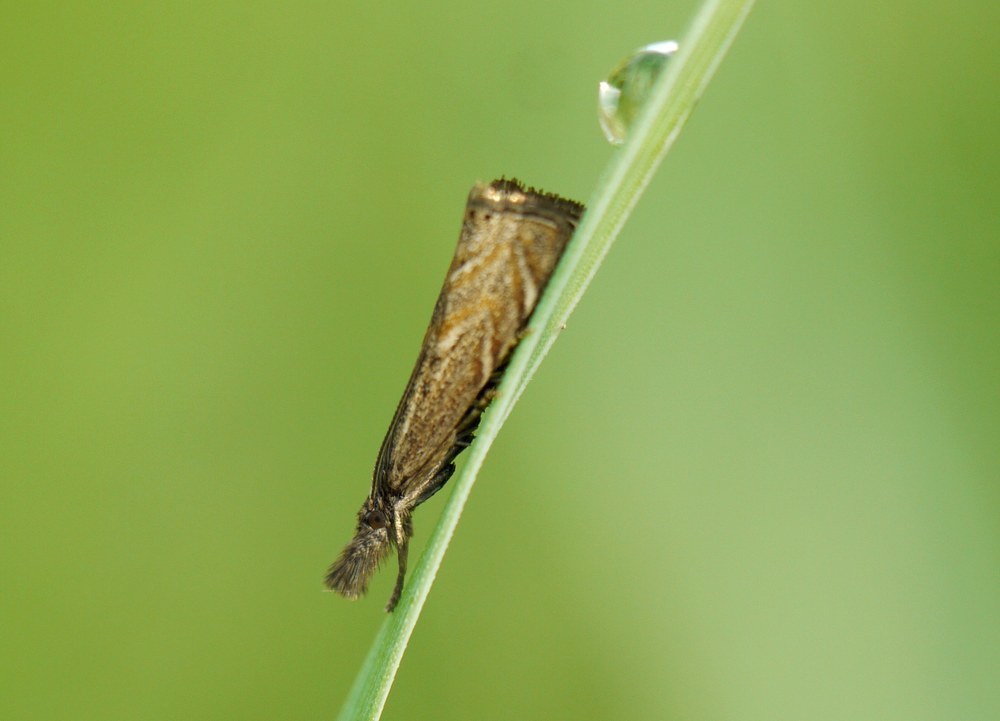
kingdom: Animalia
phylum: Arthropoda
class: Insecta
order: Lepidoptera
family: Crambidae
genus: Platytes
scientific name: Platytes cerusella
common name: Little grass-veneer
